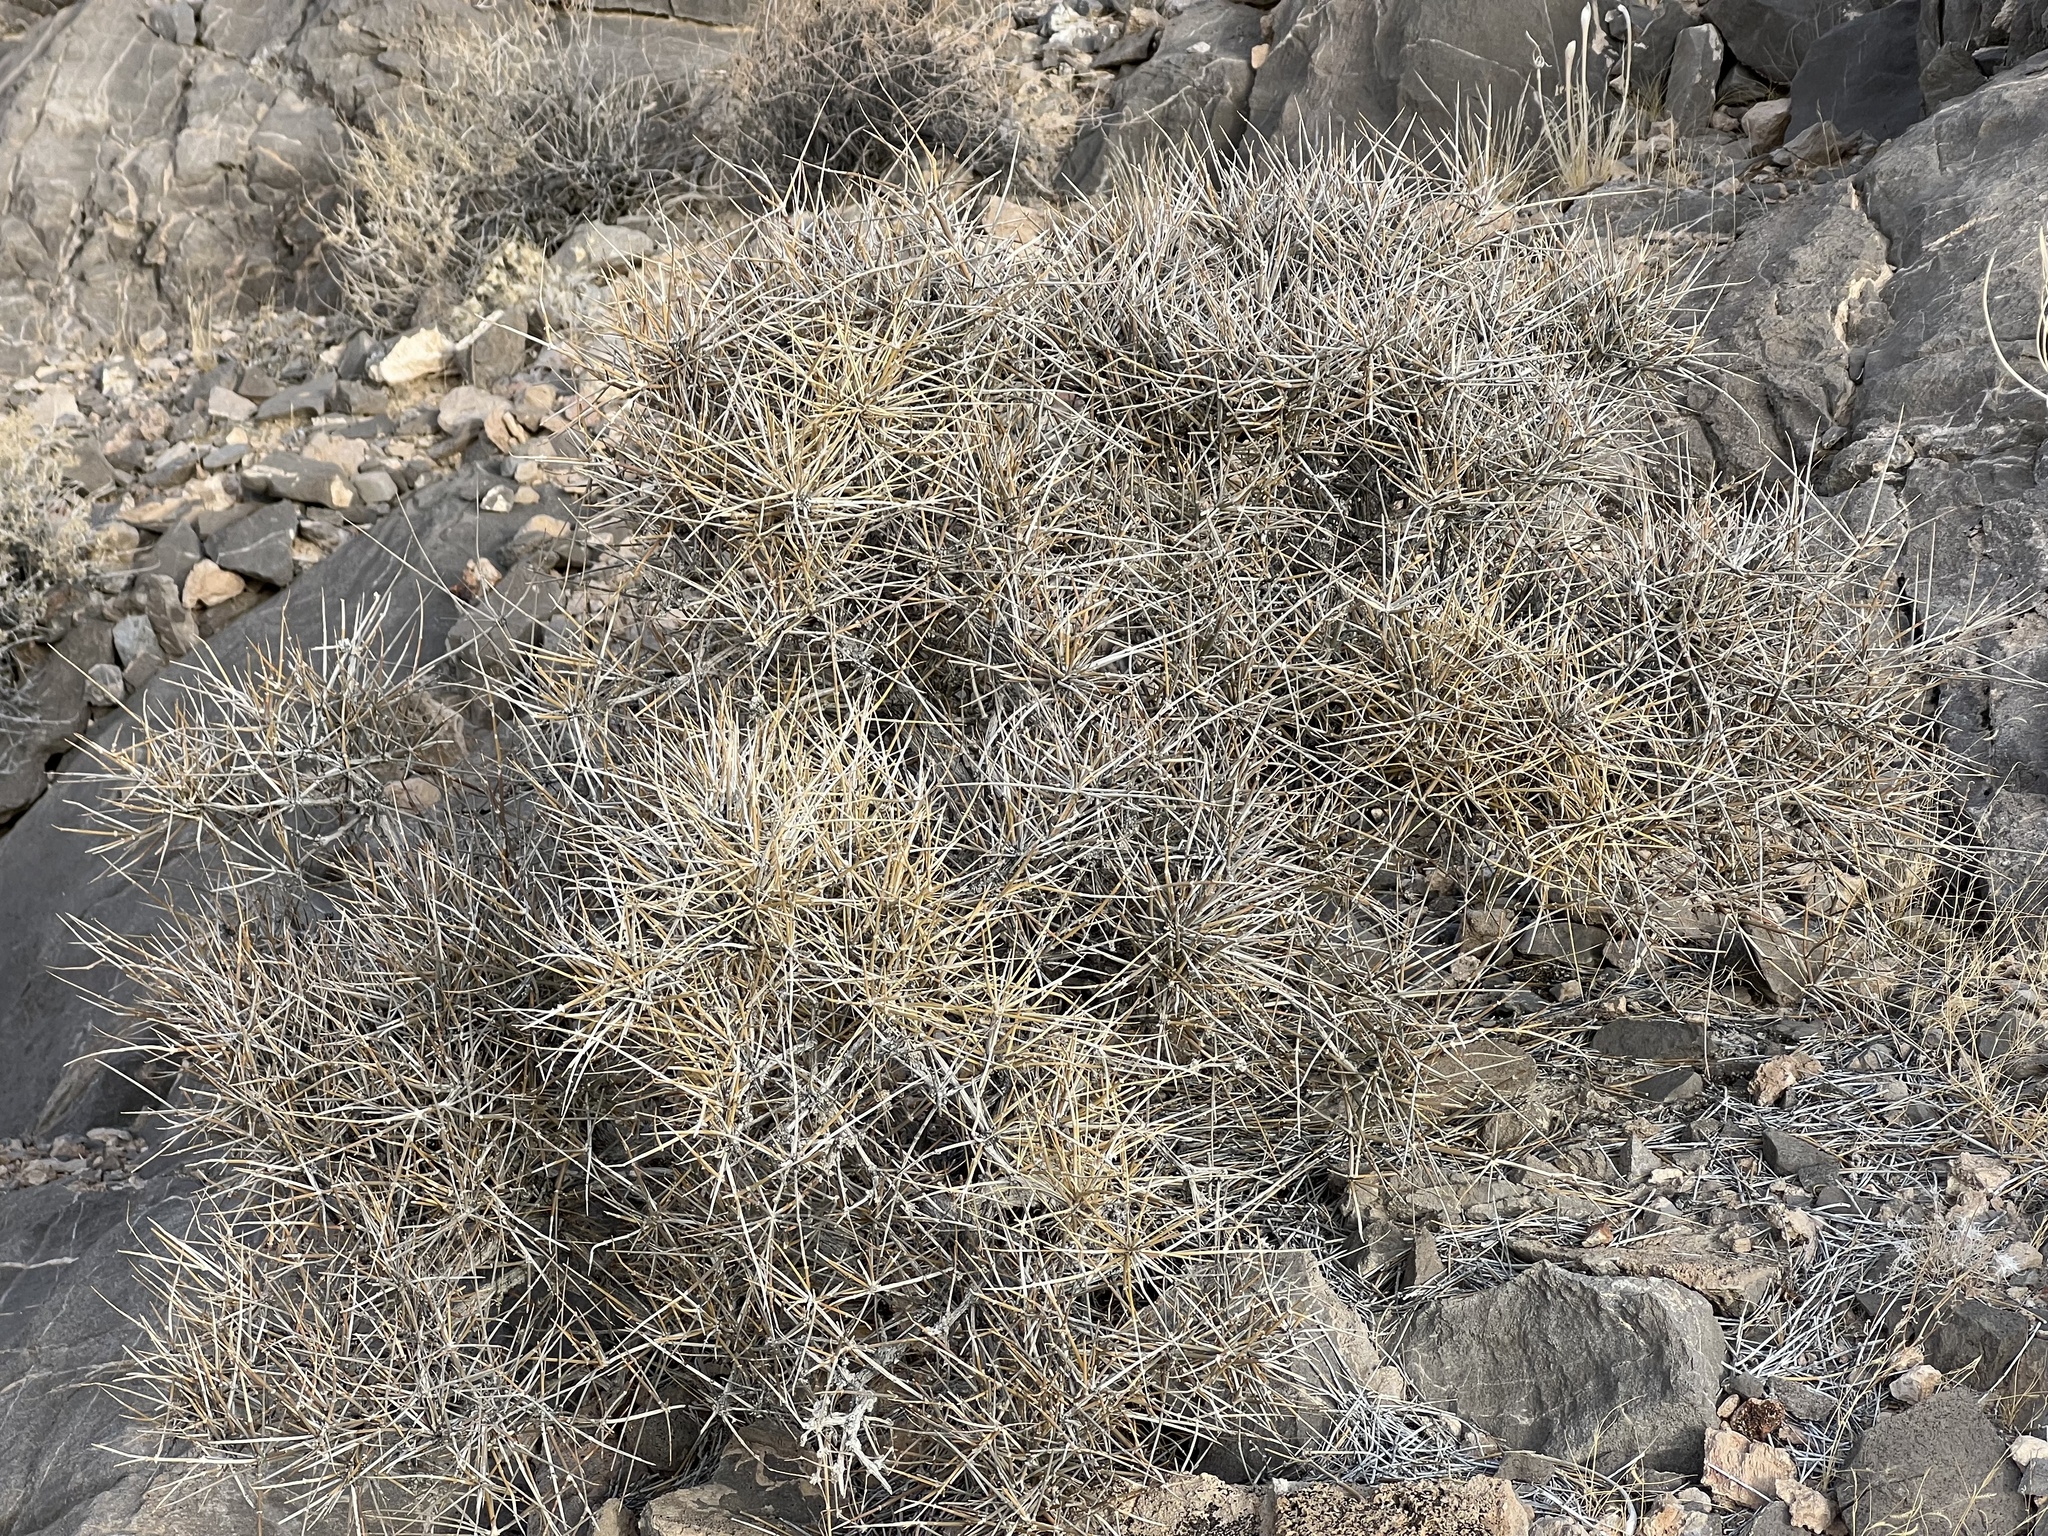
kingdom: Plantae
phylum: Tracheophyta
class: Gnetopsida
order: Ephedrales
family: Ephedraceae
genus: Ephedra
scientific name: Ephedra nevadensis
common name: Gray ephedra
